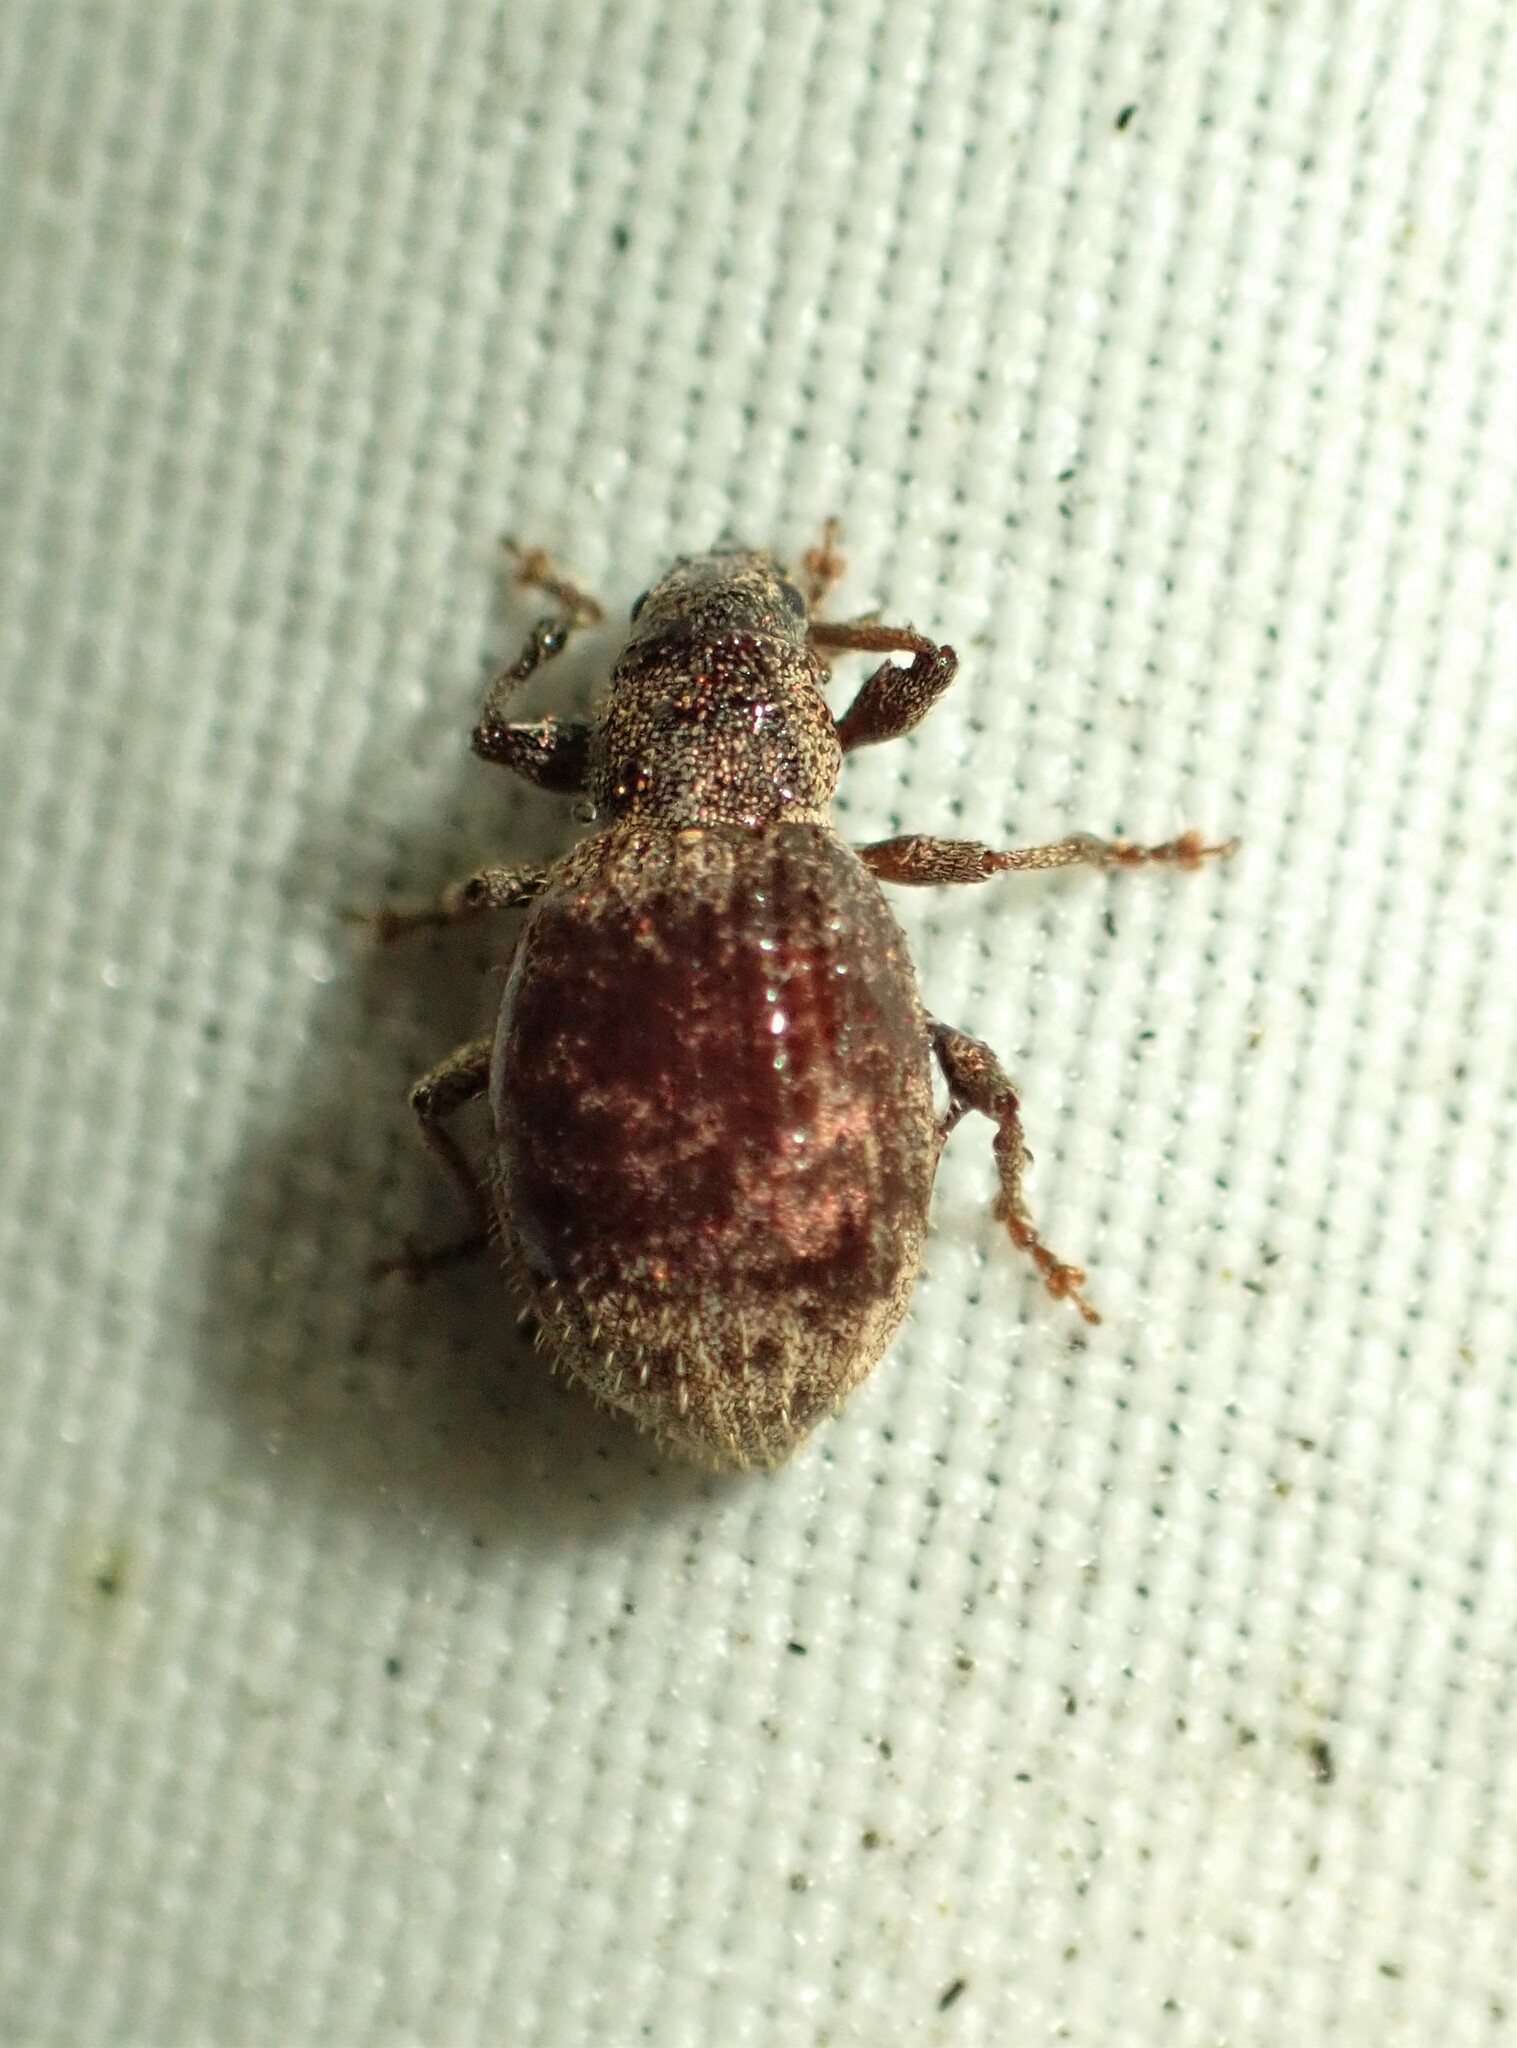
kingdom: Animalia
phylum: Arthropoda
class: Insecta
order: Coleoptera
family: Curculionidae
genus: Sciaphilus
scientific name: Sciaphilus asperatus
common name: Weevil
